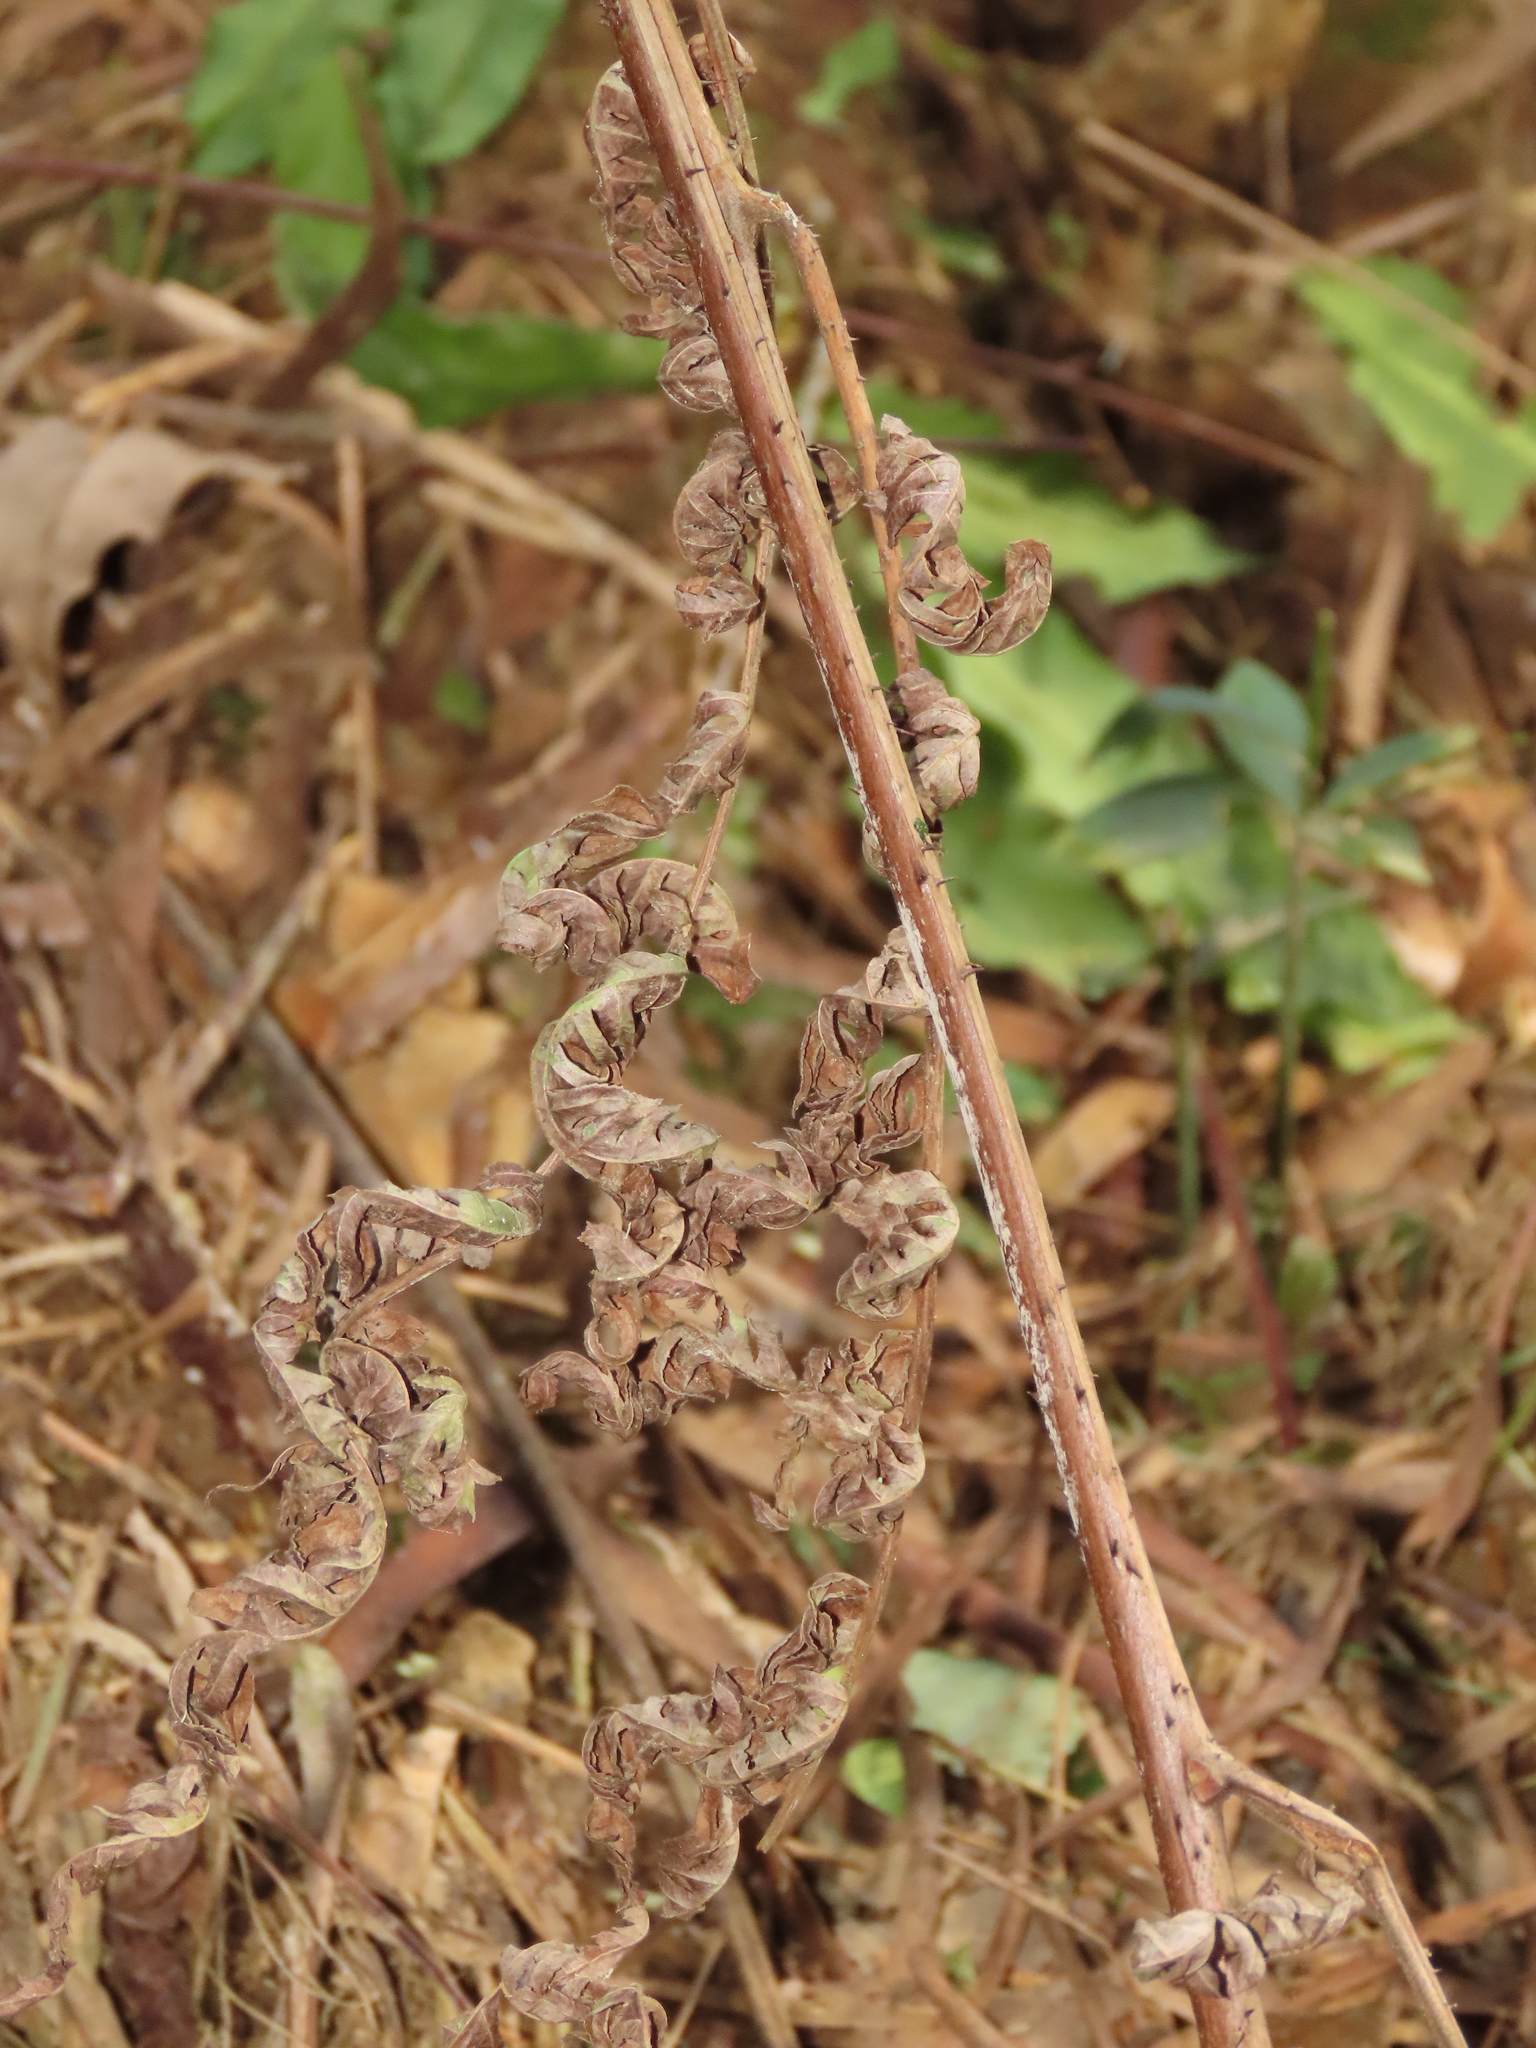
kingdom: Plantae
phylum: Tracheophyta
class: Polypodiopsida
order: Cyatheales
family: Cyatheaceae
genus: Gymnosphaera
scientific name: Gymnosphaera podophylla
